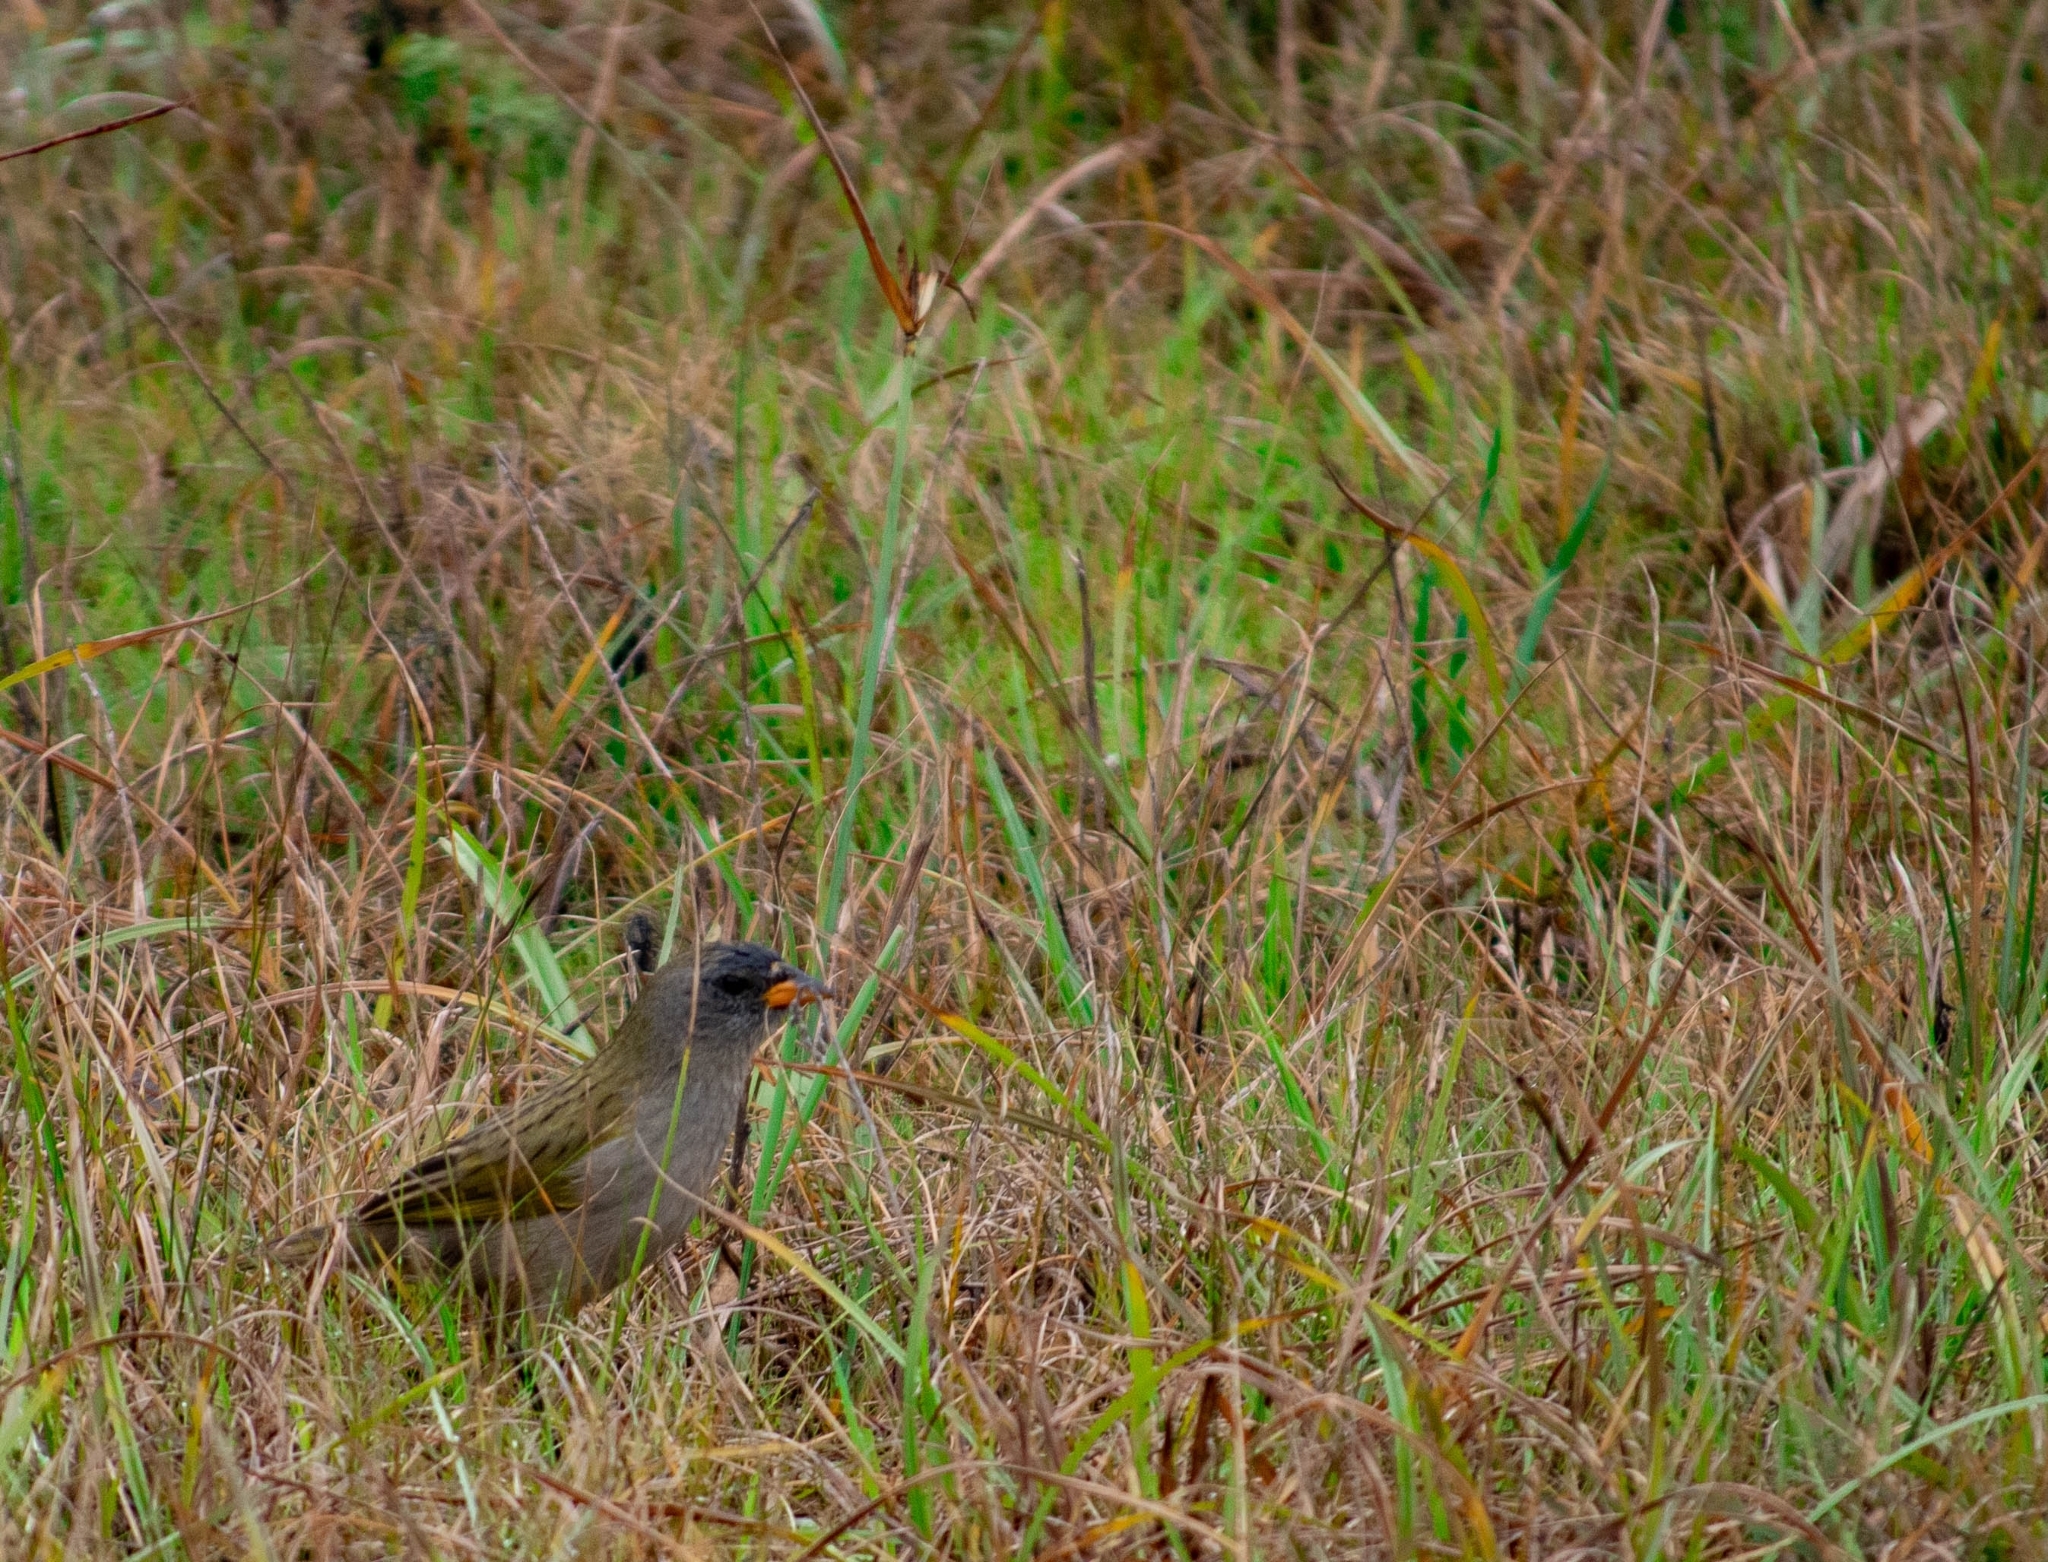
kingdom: Animalia
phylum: Chordata
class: Aves
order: Passeriformes
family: Thraupidae
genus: Embernagra
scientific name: Embernagra platensis
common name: Pampa finch
